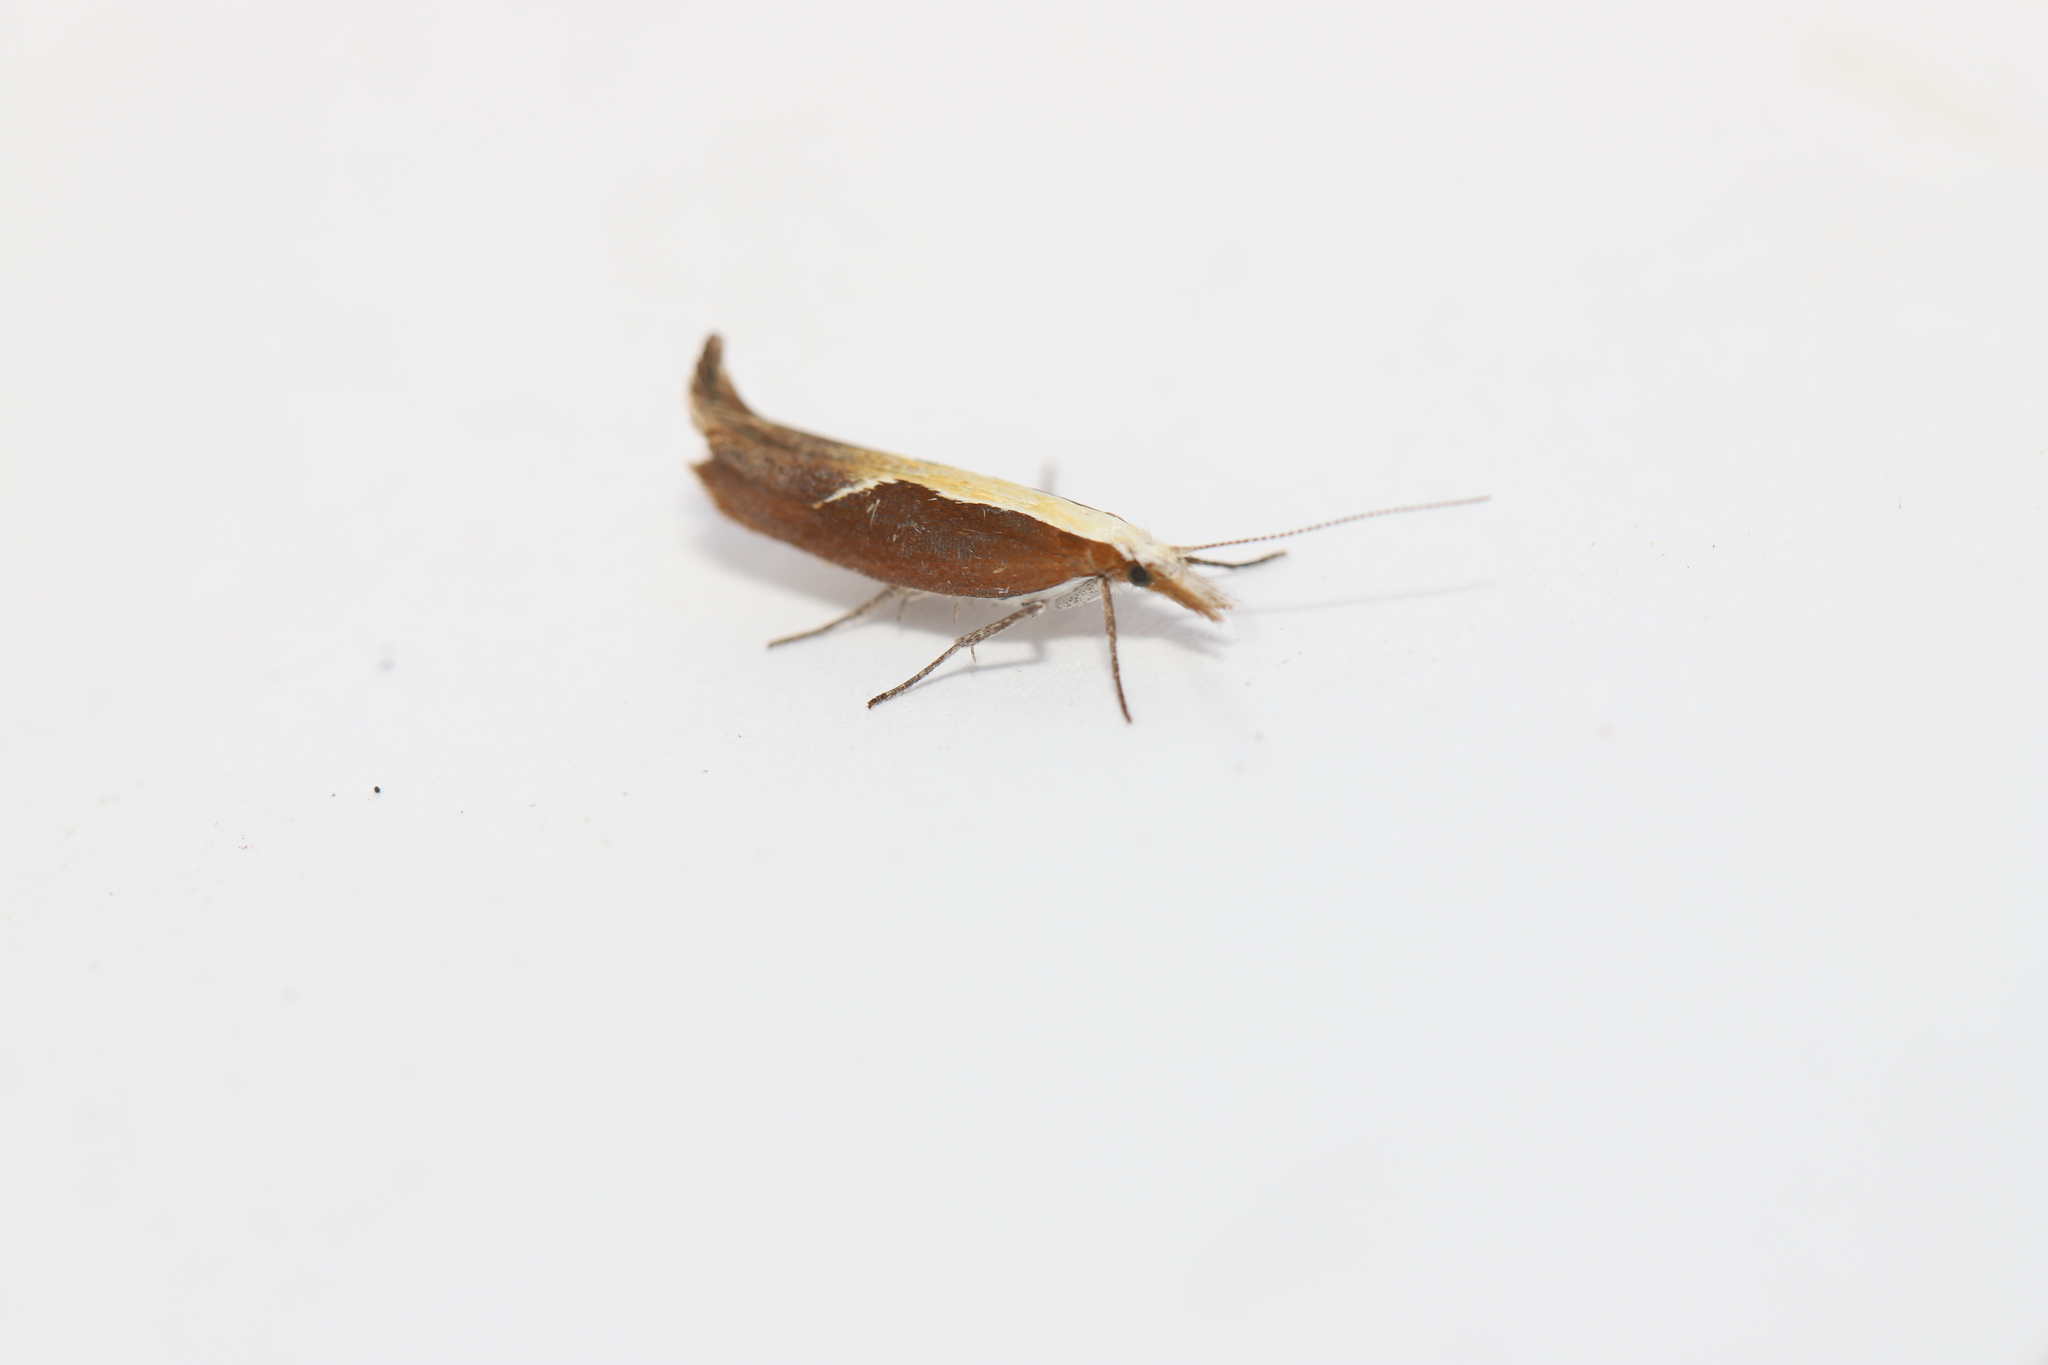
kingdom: Animalia
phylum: Arthropoda
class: Insecta
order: Lepidoptera
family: Ypsolophidae
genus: Ypsolopha
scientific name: Ypsolopha dentella
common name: Honeysuckle moth
